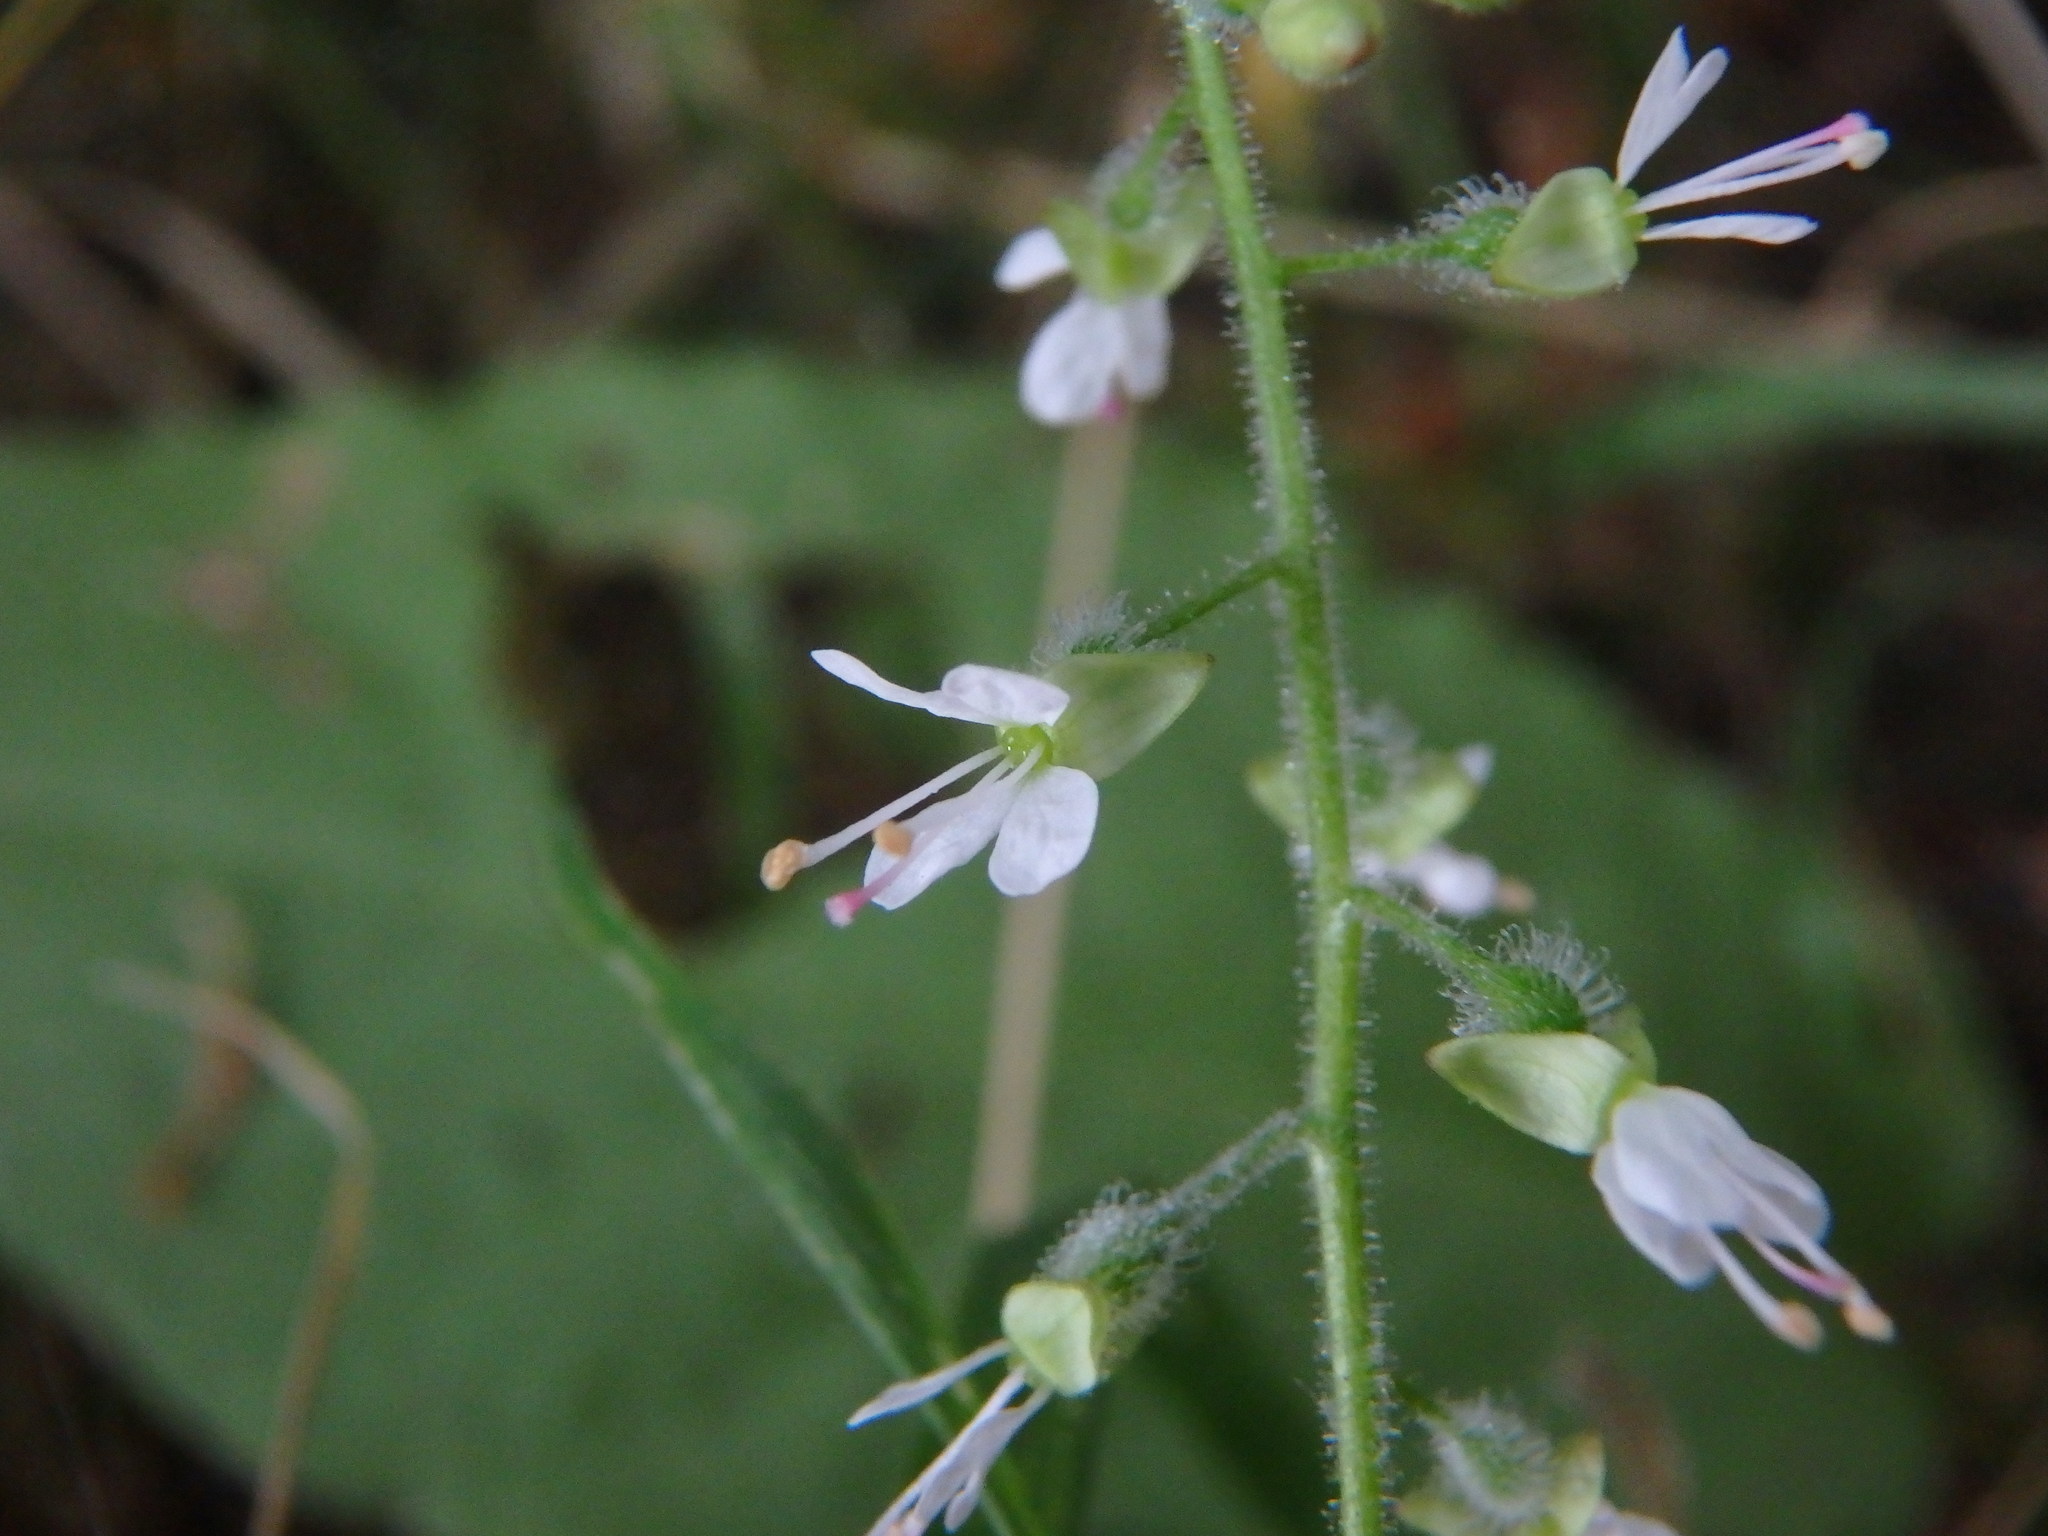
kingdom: Plantae
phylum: Tracheophyta
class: Magnoliopsida
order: Myrtales
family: Onagraceae
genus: Circaea
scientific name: Circaea lutetiana
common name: Enchanter's-nightshade
